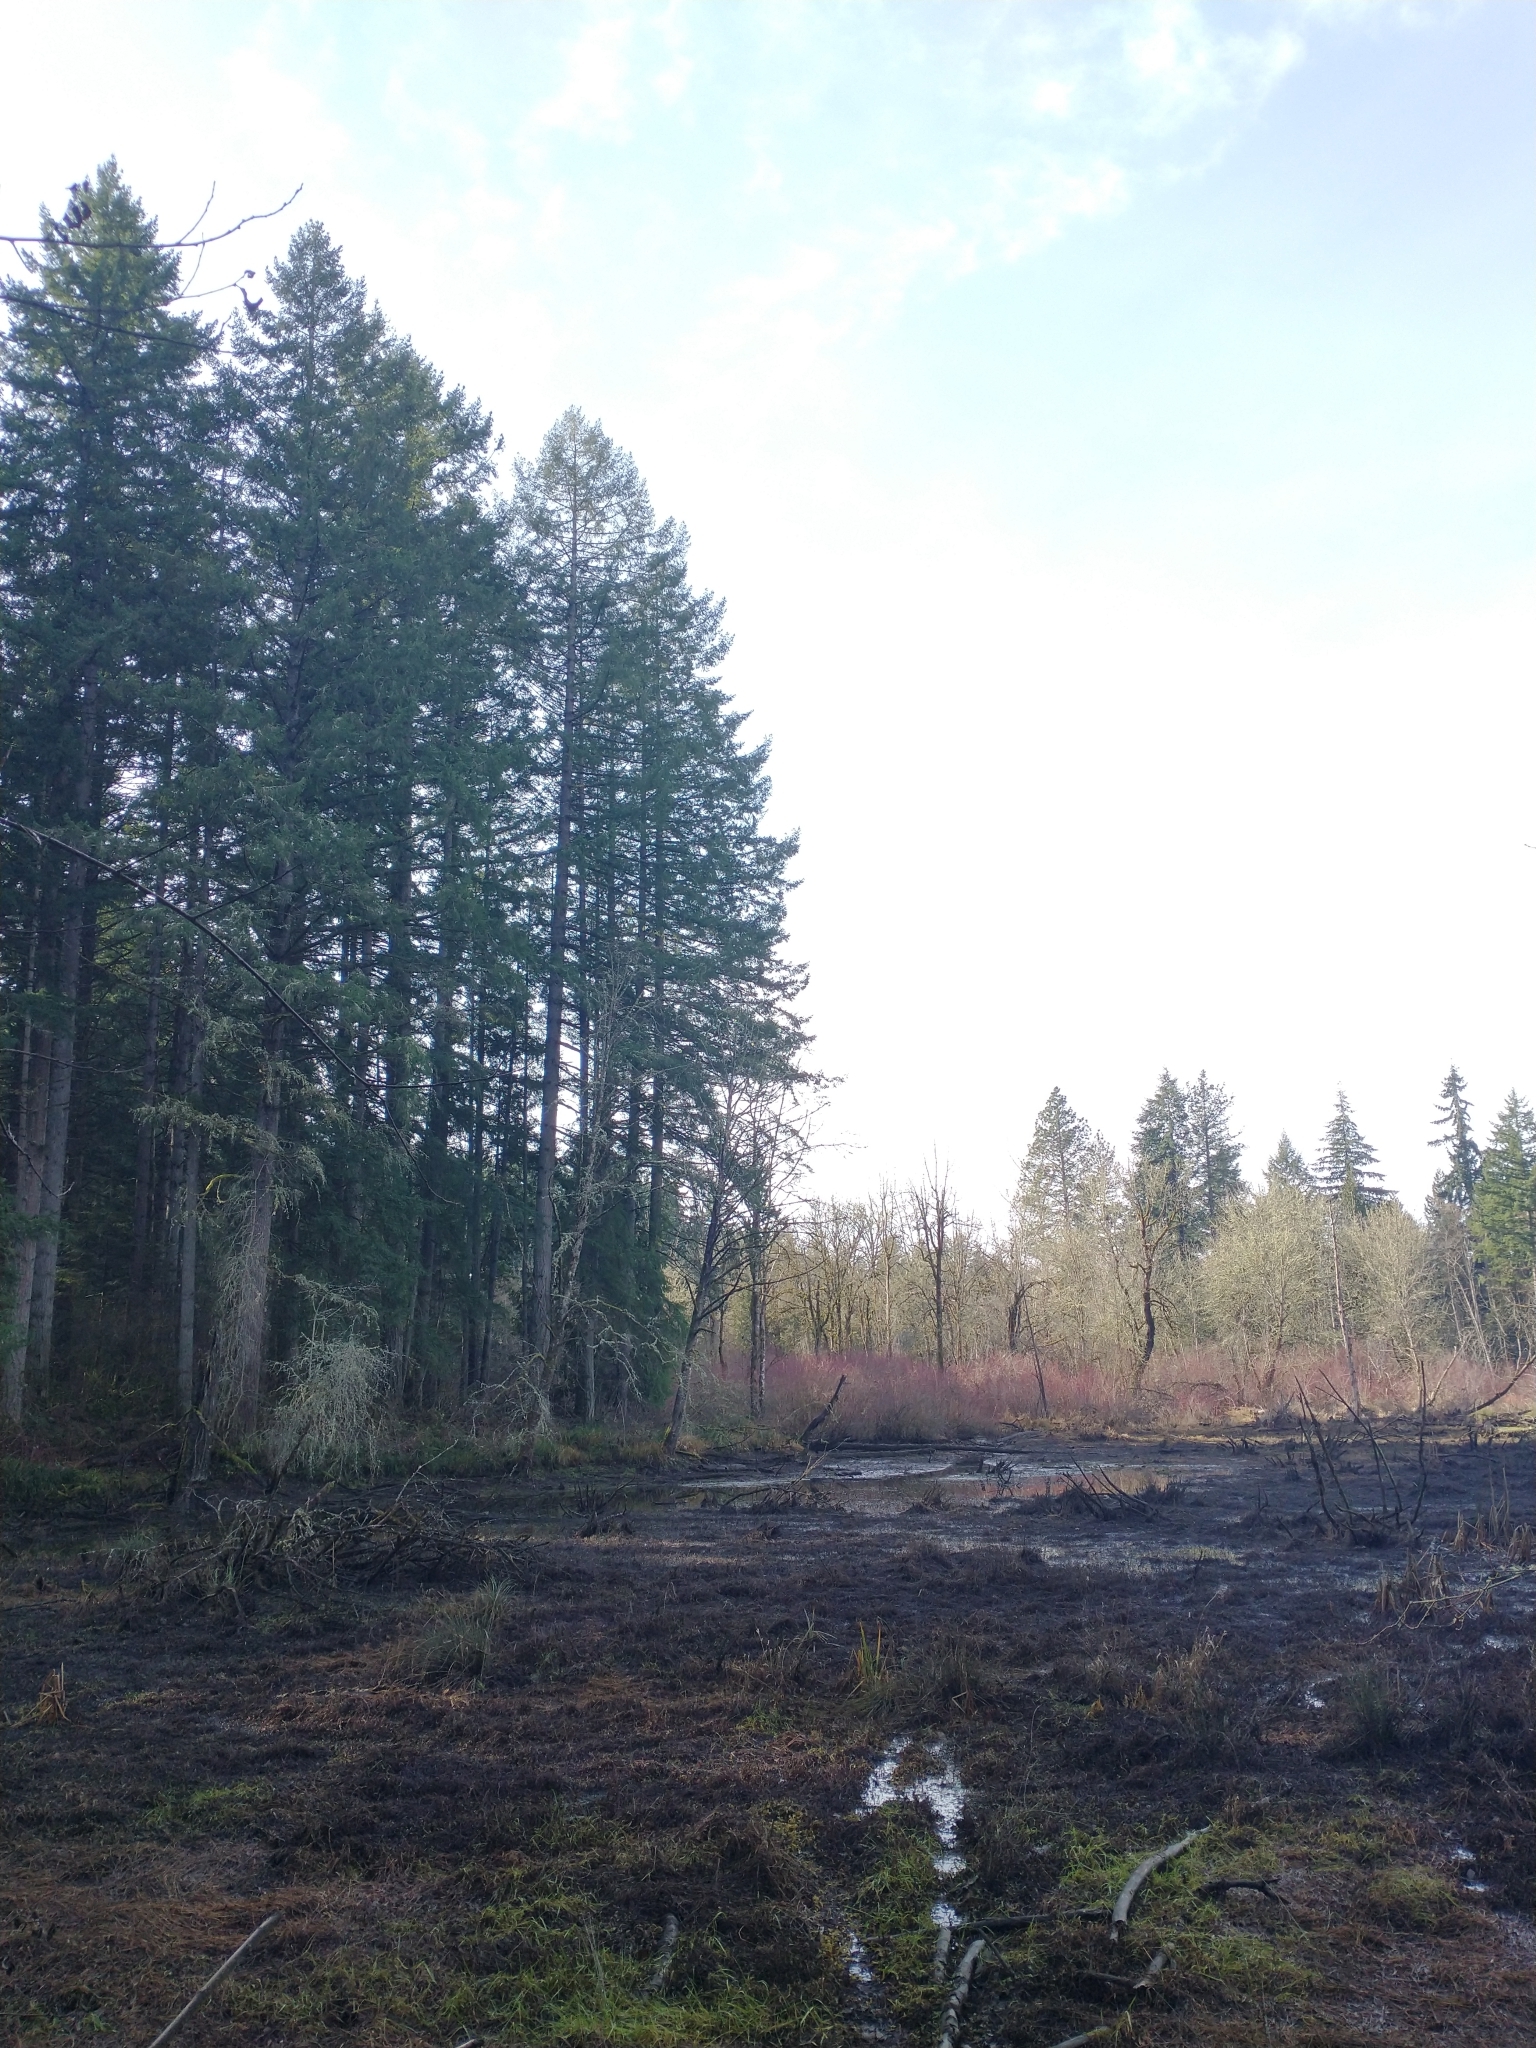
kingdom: Plantae
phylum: Tracheophyta
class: Pinopsida
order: Pinales
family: Pinaceae
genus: Pseudotsuga
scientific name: Pseudotsuga menziesii
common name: Douglas fir
